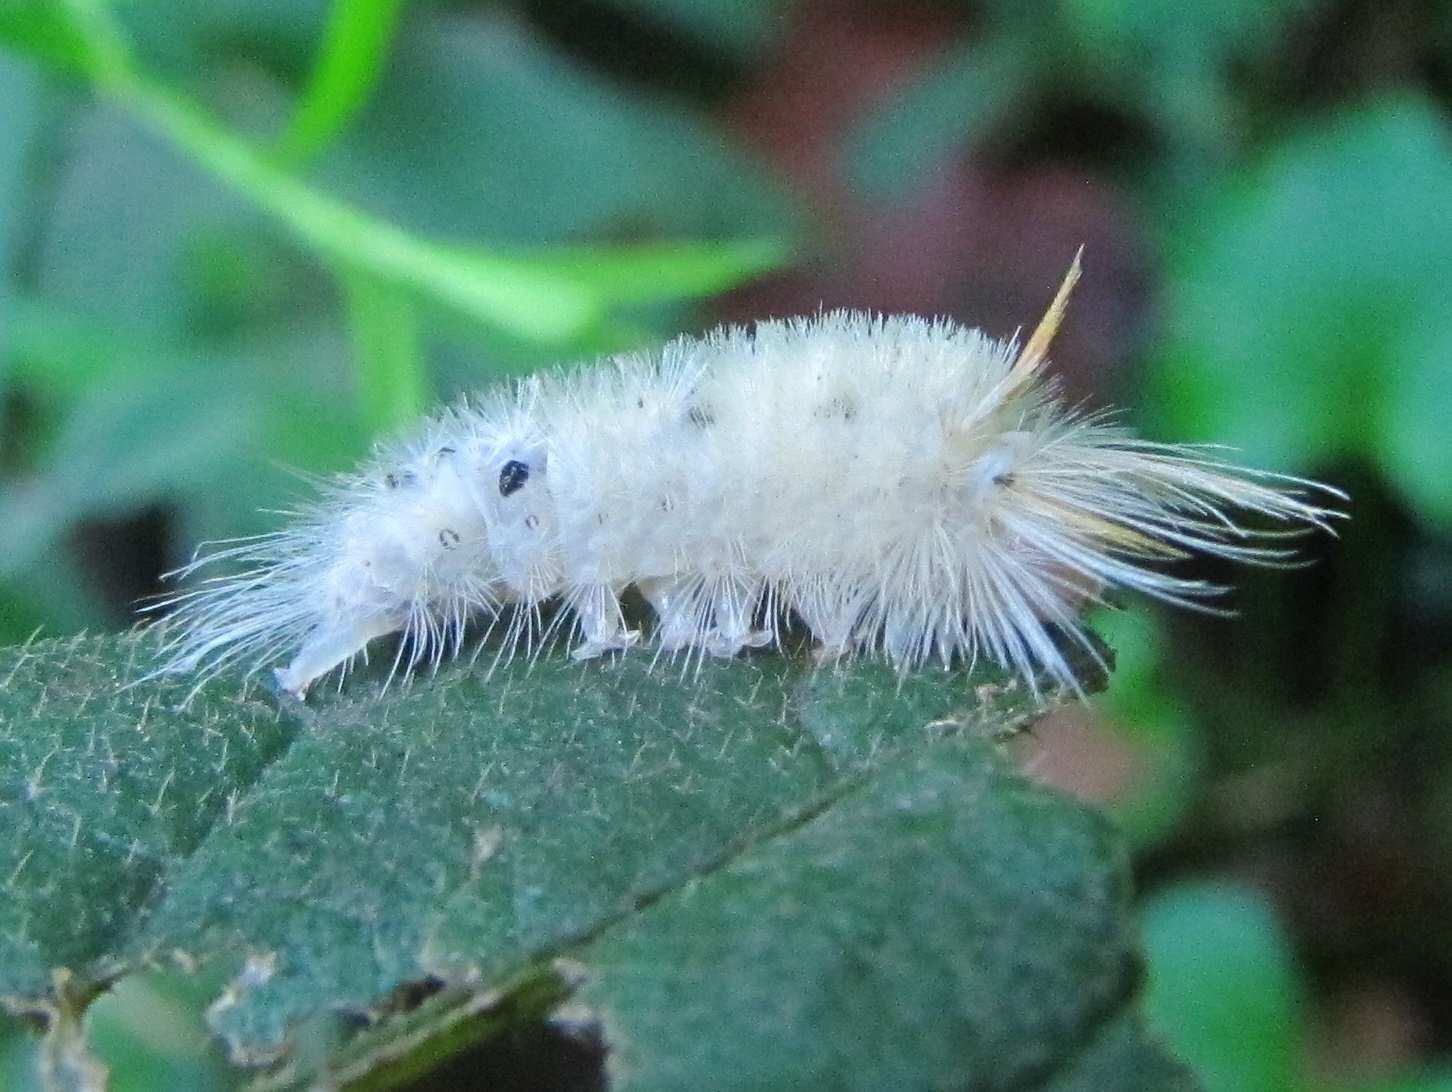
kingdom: Animalia
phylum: Arthropoda
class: Insecta
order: Lepidoptera
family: Erebidae
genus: Halysidota
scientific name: Halysidota harrisii
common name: Sycamore tussock moth
